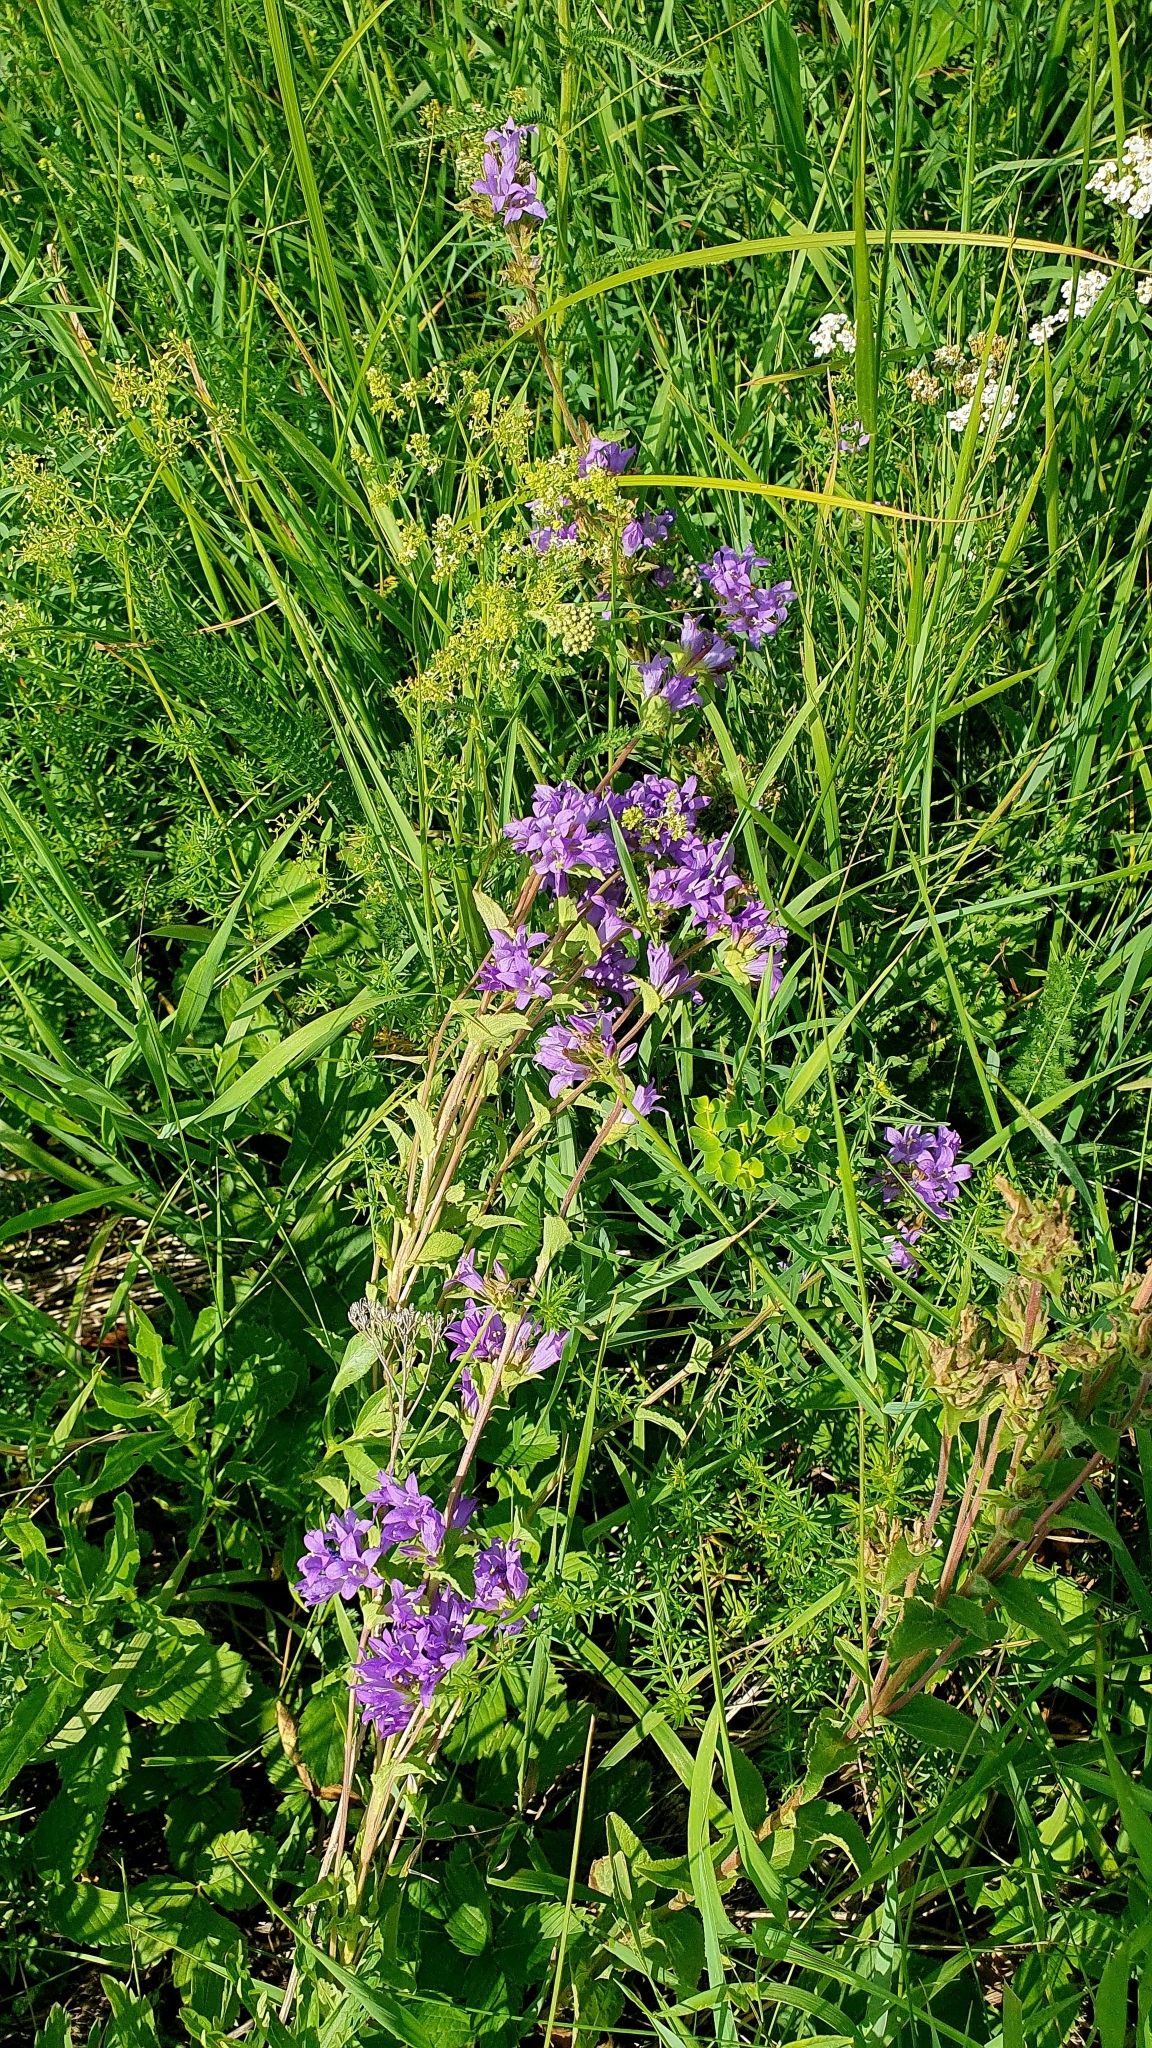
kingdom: Plantae
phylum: Tracheophyta
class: Magnoliopsida
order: Asterales
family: Campanulaceae
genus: Campanula
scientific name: Campanula glomerata
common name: Clustered bellflower
